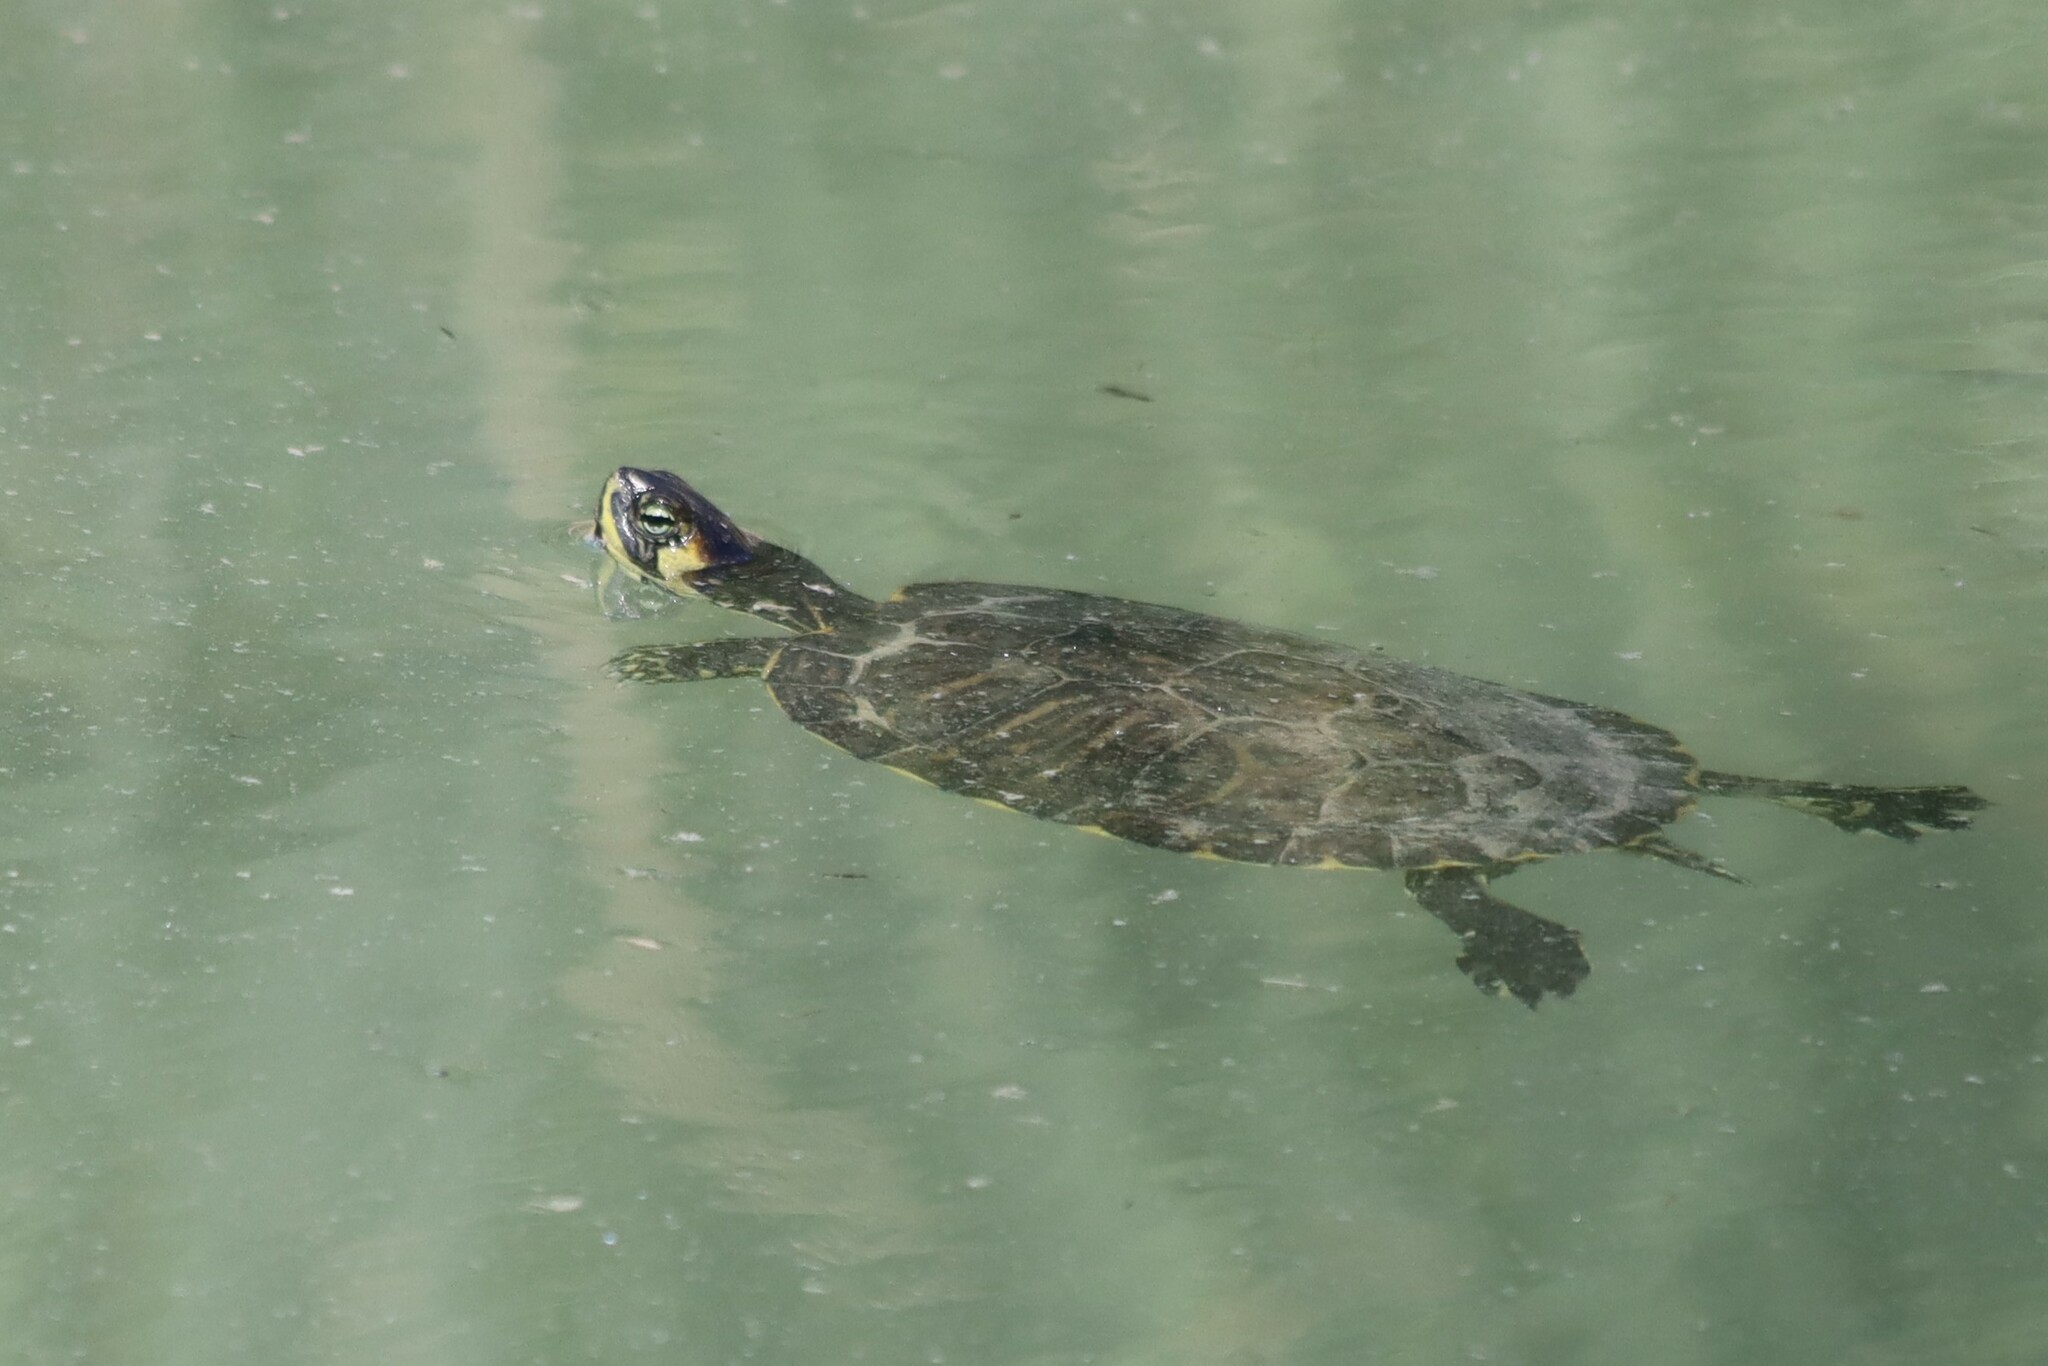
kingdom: Animalia
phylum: Chordata
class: Testudines
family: Emydidae
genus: Trachemys
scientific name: Trachemys scripta
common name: Slider
